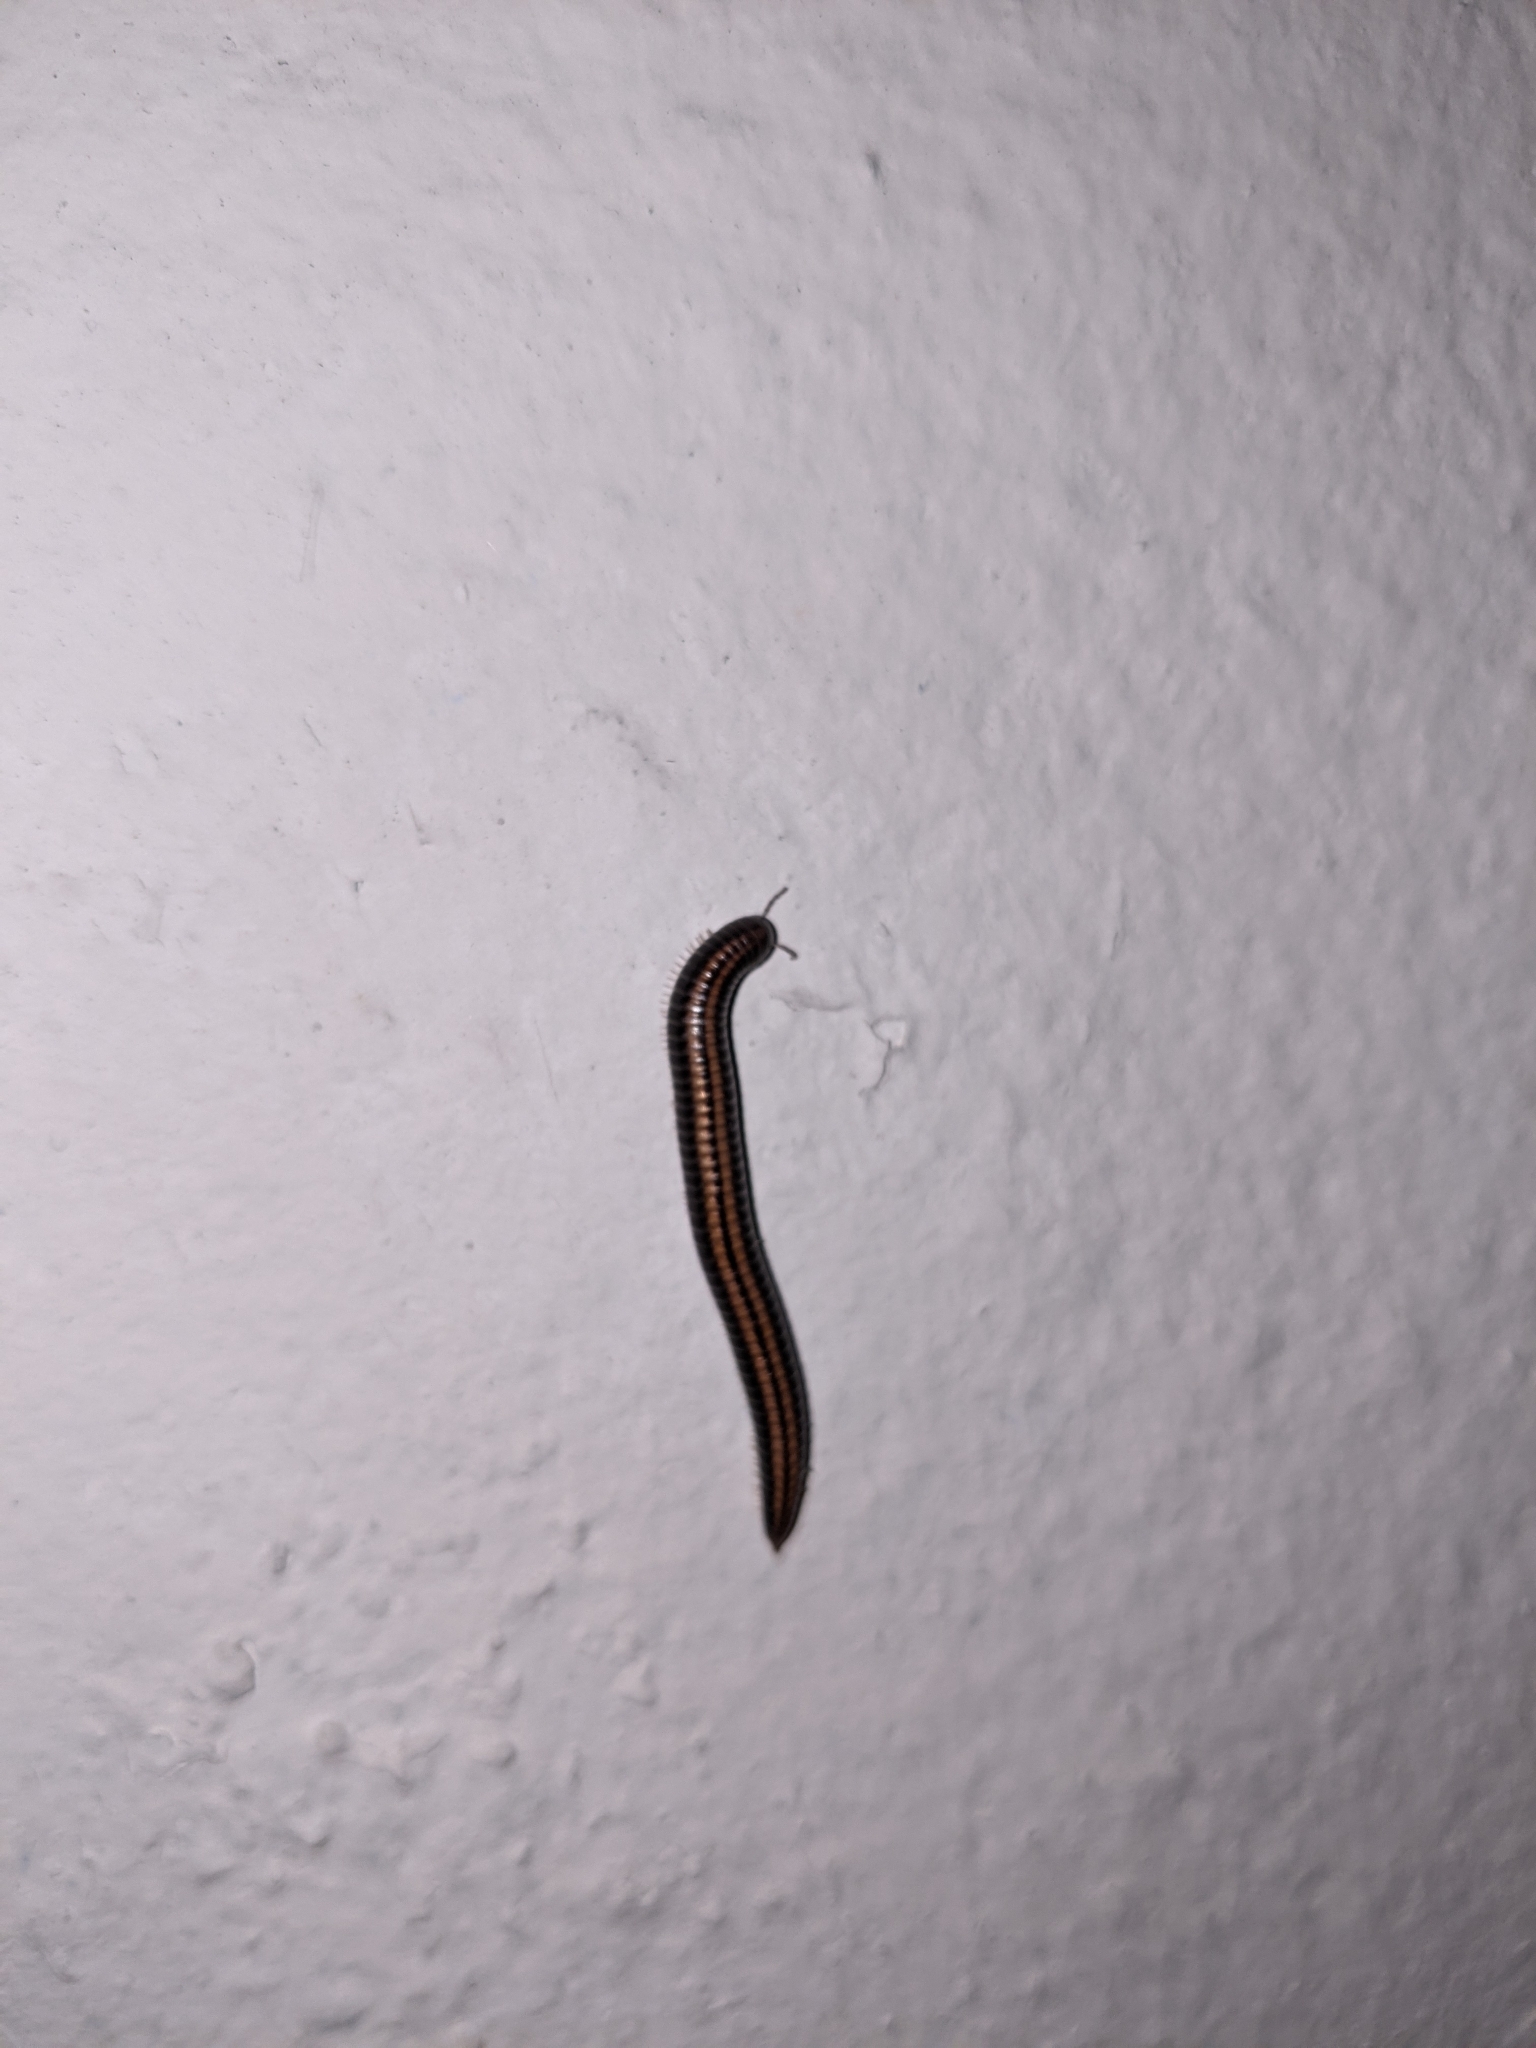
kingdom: Animalia
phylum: Arthropoda
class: Diplopoda
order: Julida
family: Julidae
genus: Ommatoiulus
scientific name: Ommatoiulus sabulosus
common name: Striped millipede
